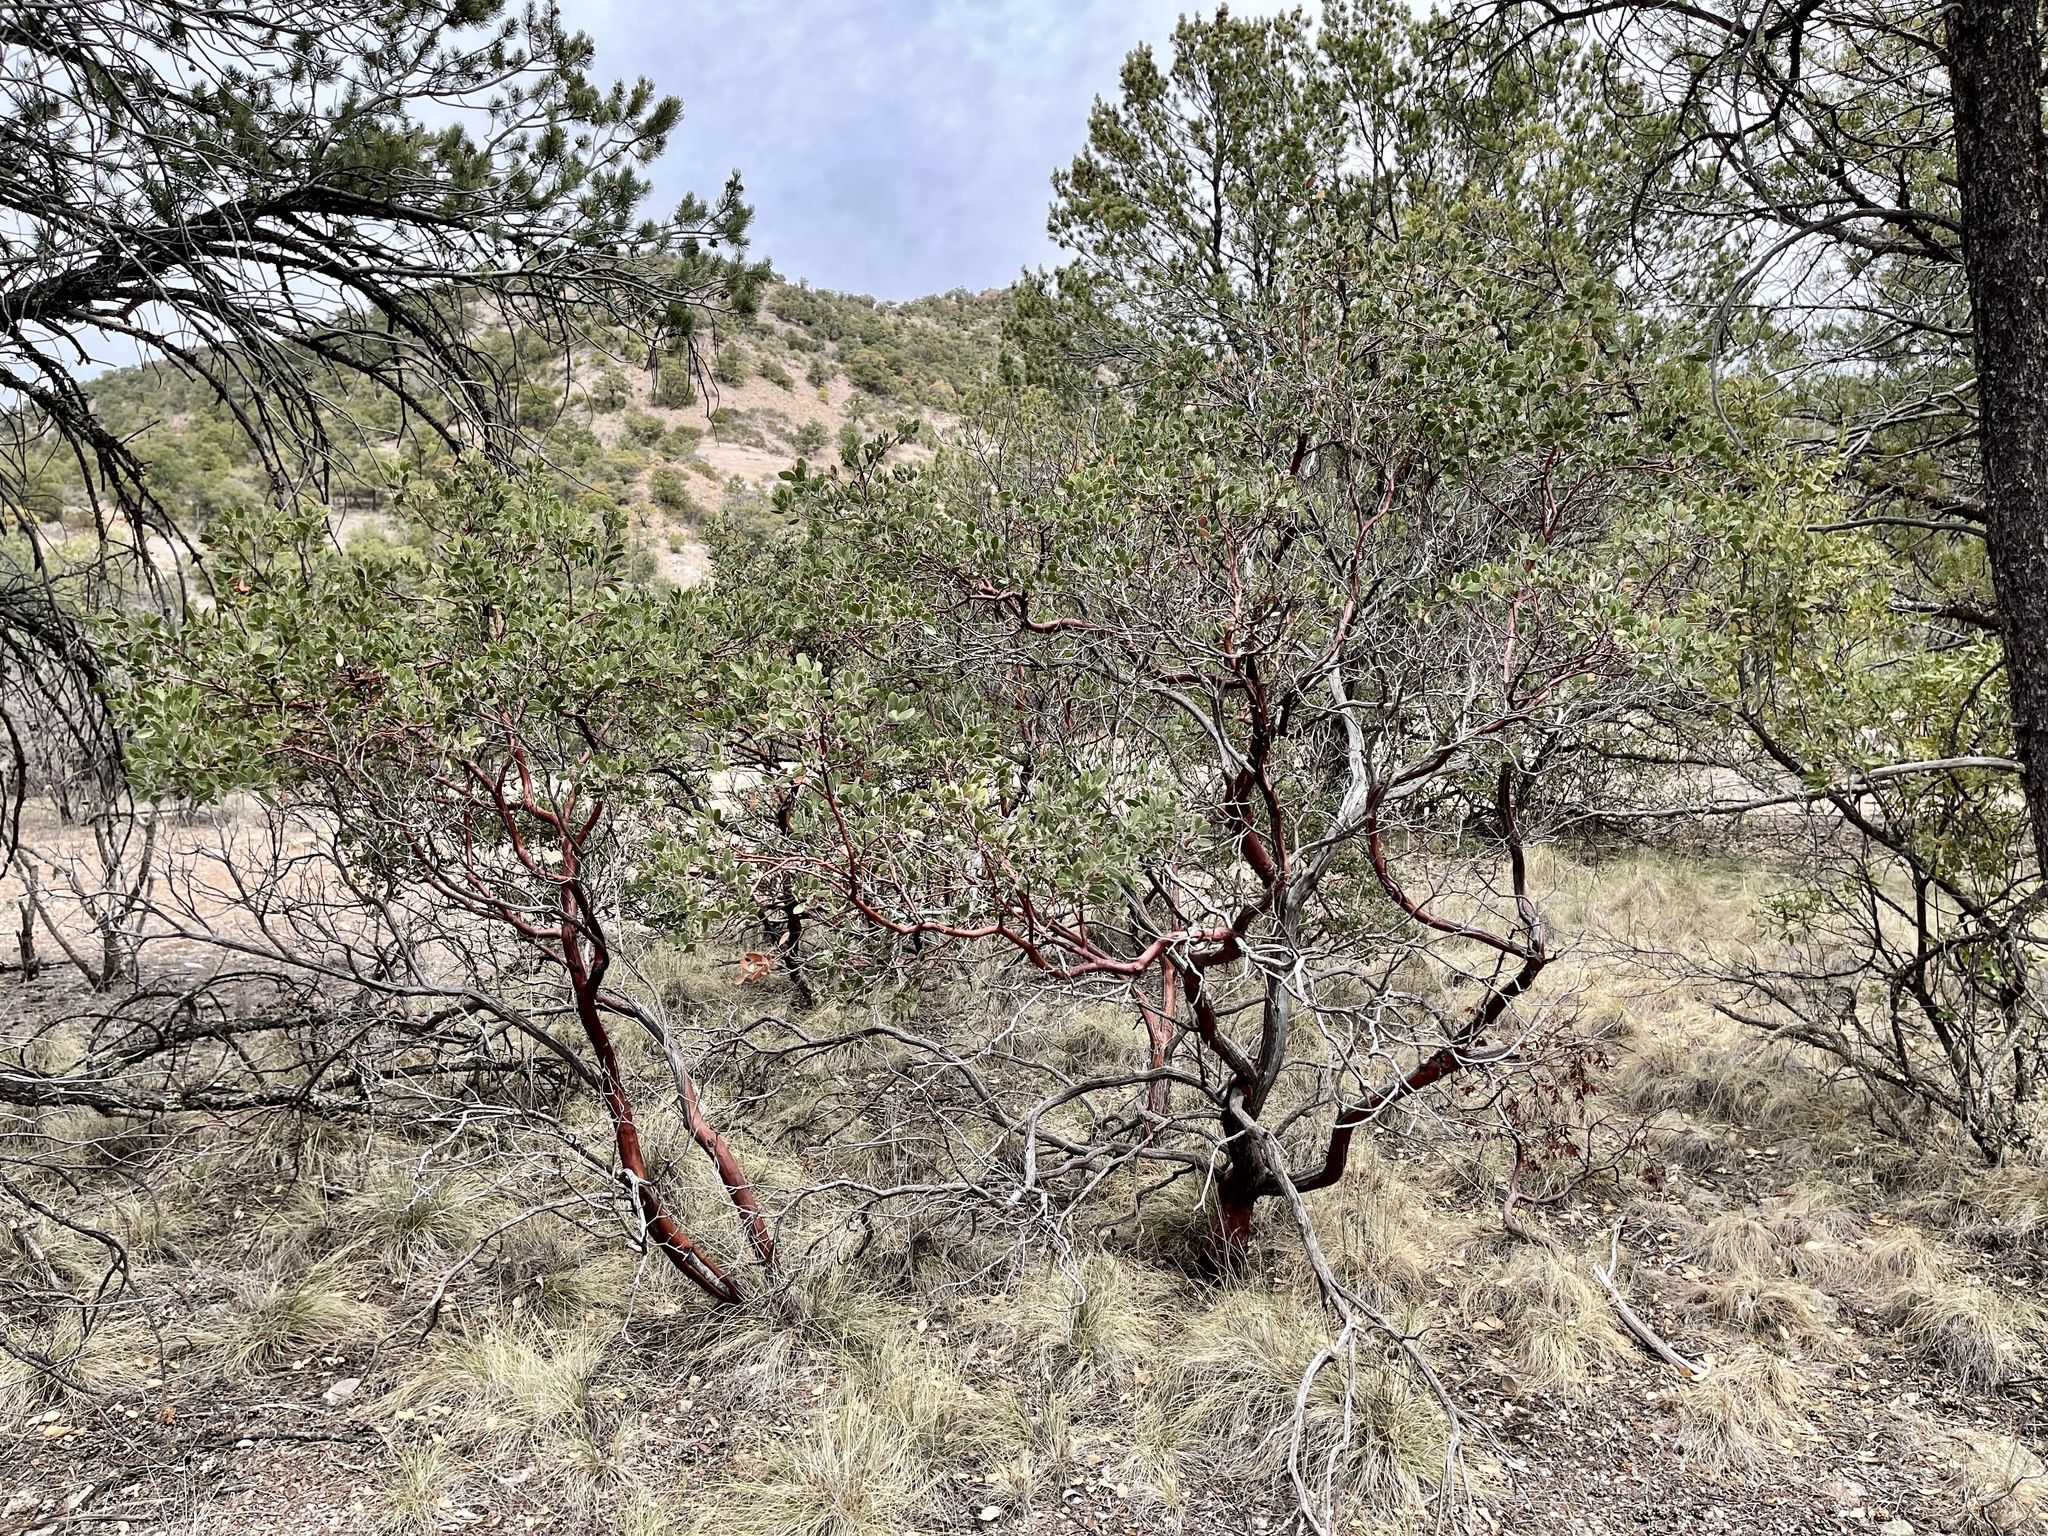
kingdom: Plantae
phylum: Tracheophyta
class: Magnoliopsida
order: Ericales
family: Ericaceae
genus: Arctostaphylos
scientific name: Arctostaphylos pungens
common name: Mexican manzanita
